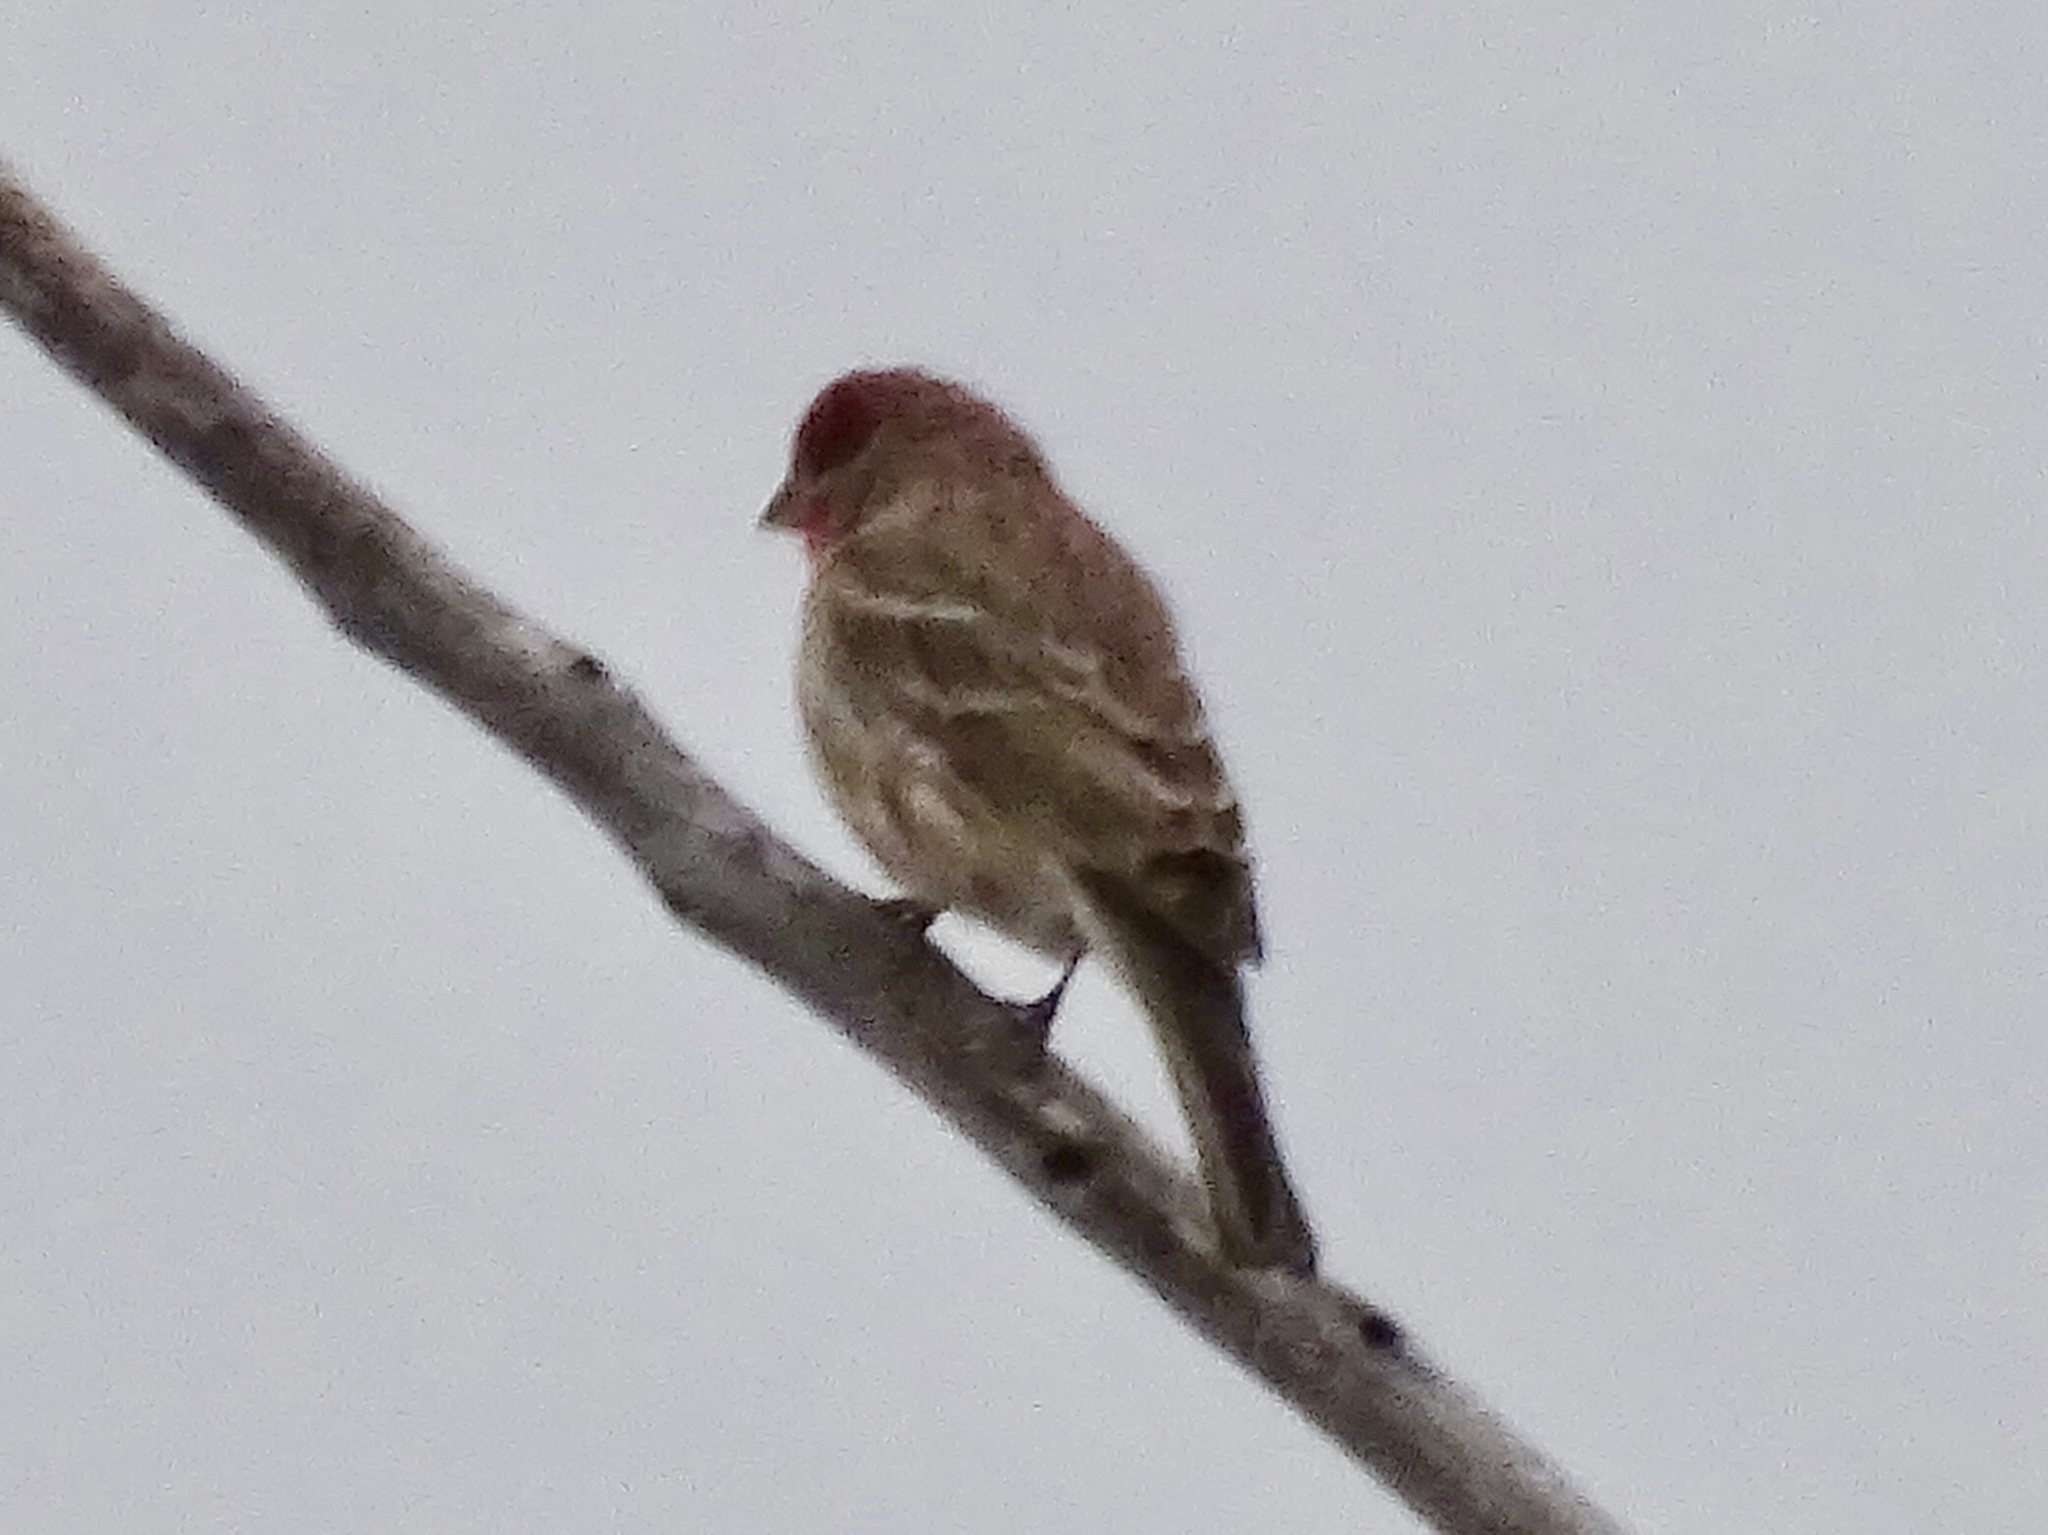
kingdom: Animalia
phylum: Chordata
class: Aves
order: Passeriformes
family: Fringillidae
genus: Haemorhous
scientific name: Haemorhous mexicanus
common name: House finch
